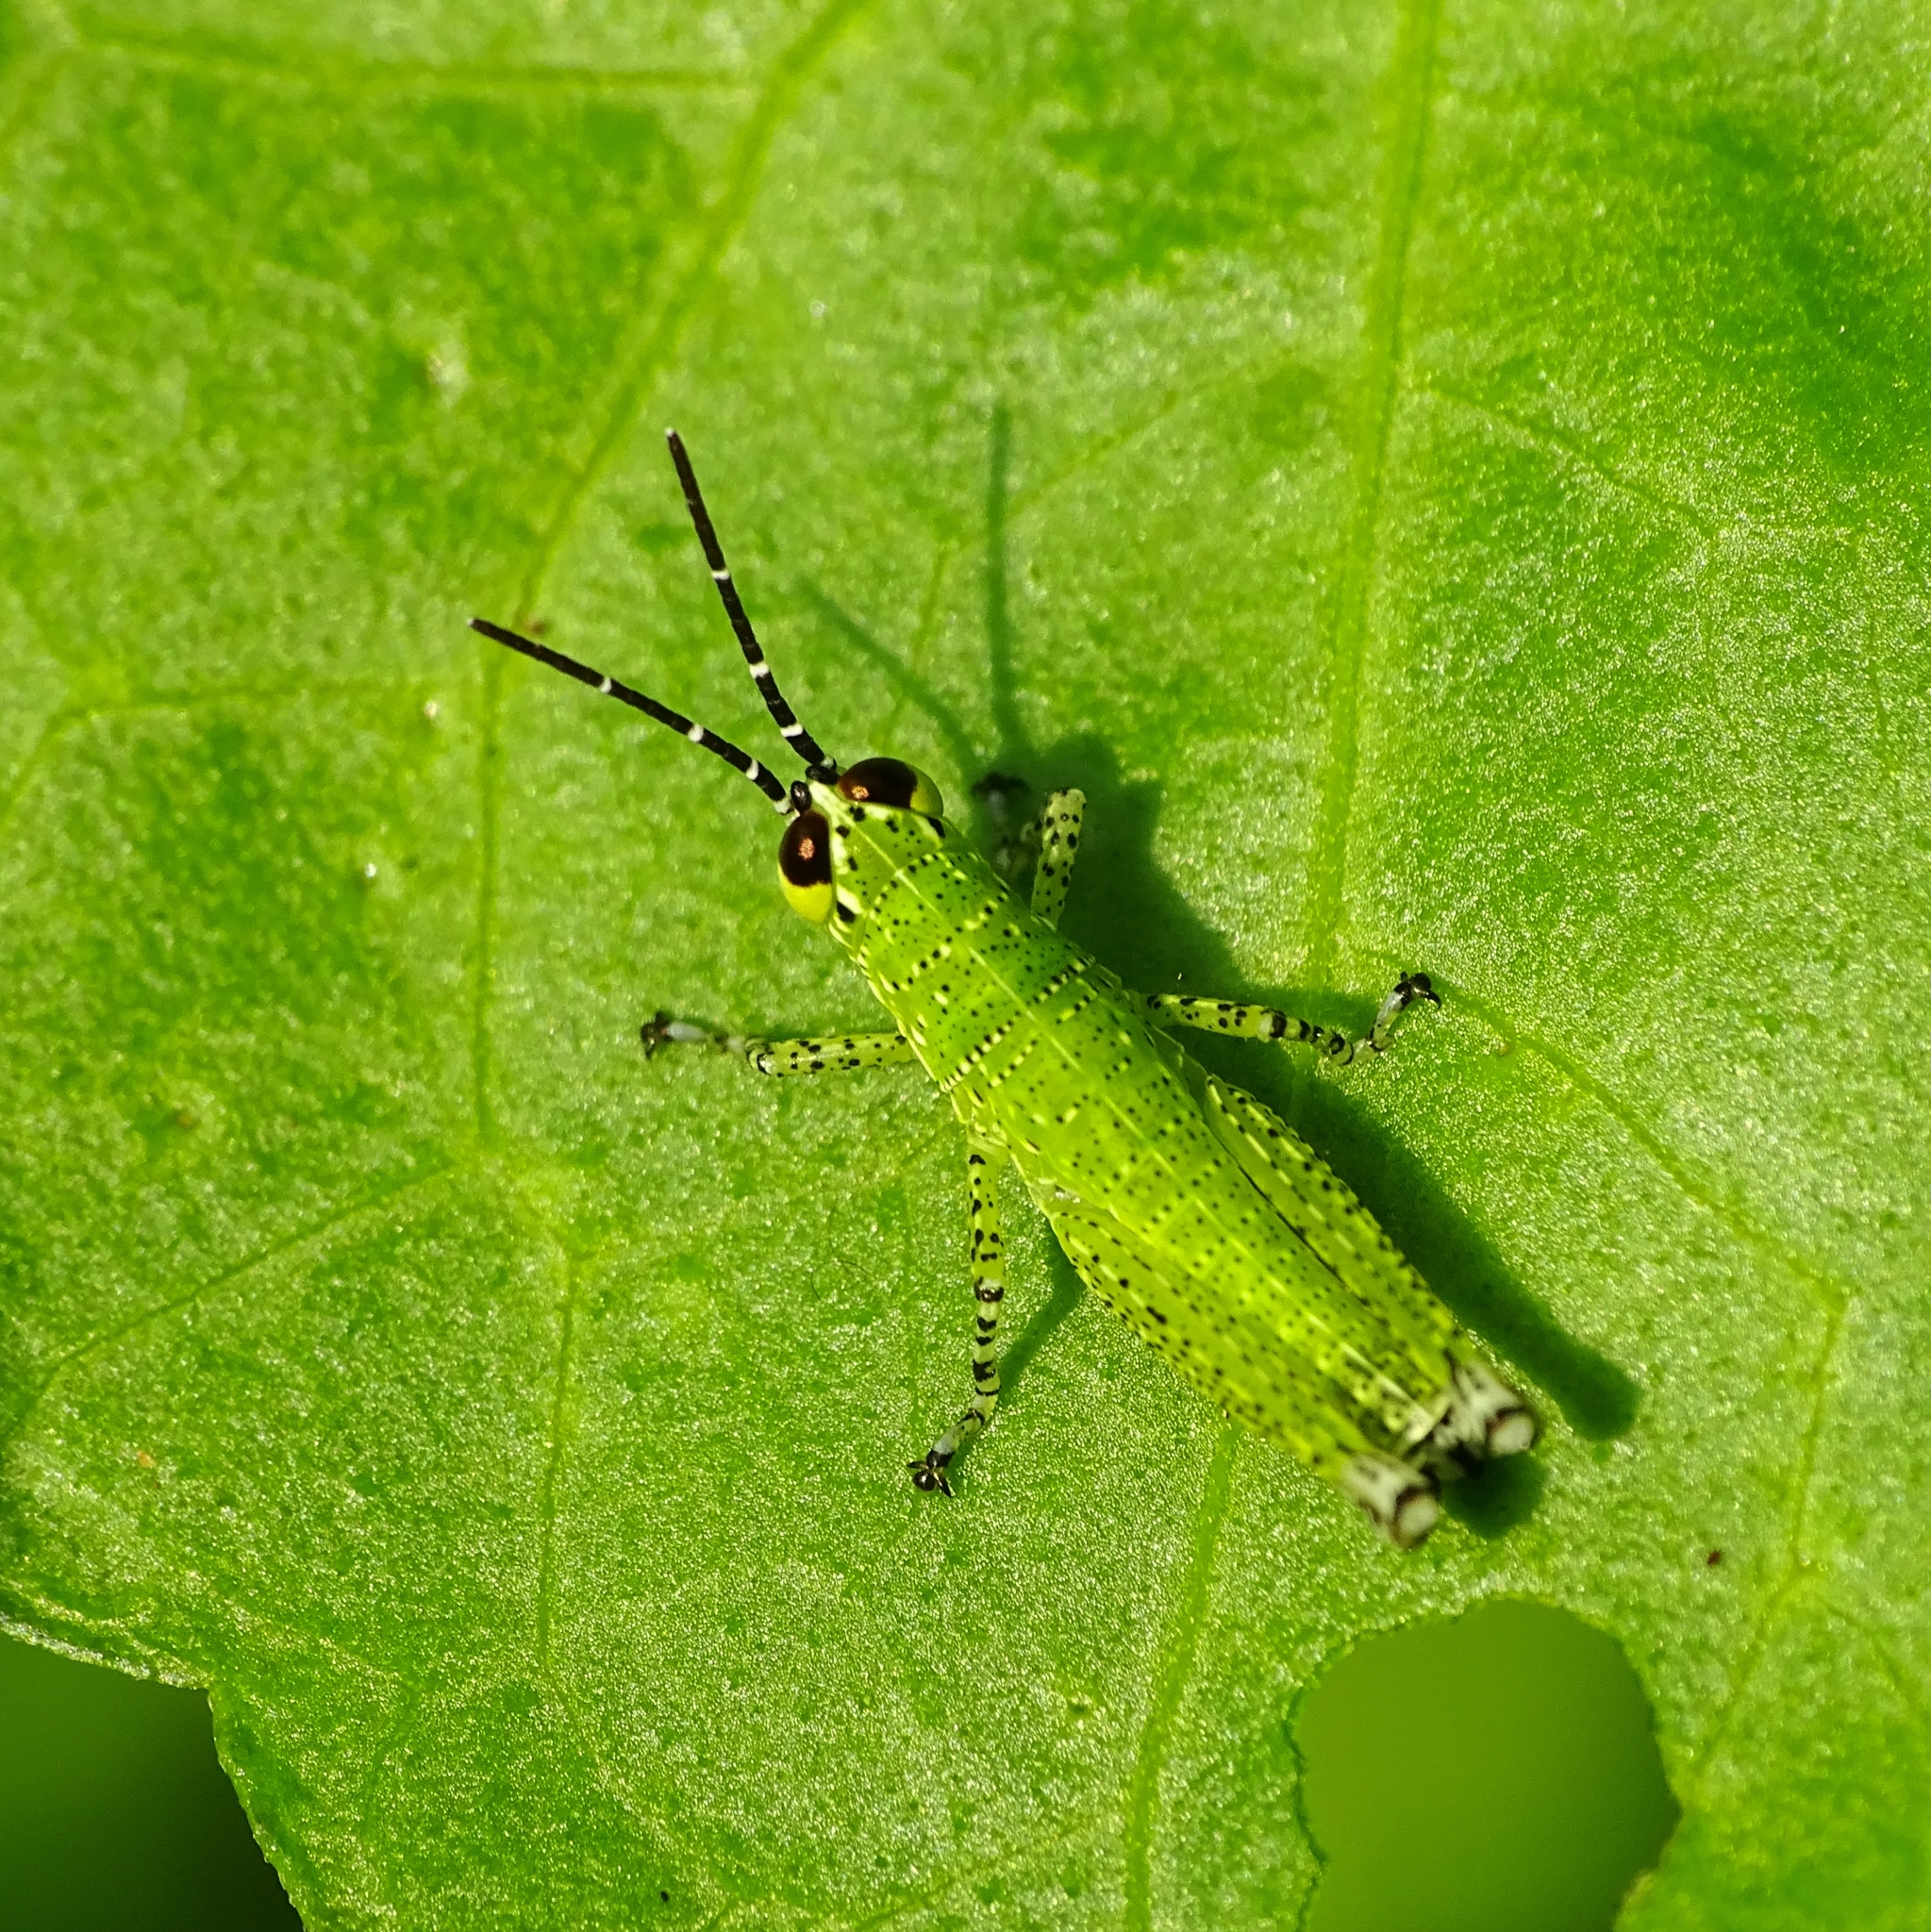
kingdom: Animalia
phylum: Arthropoda
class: Insecta
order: Orthoptera
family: Acrididae
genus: Xenocatantops
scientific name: Xenocatantops humile
